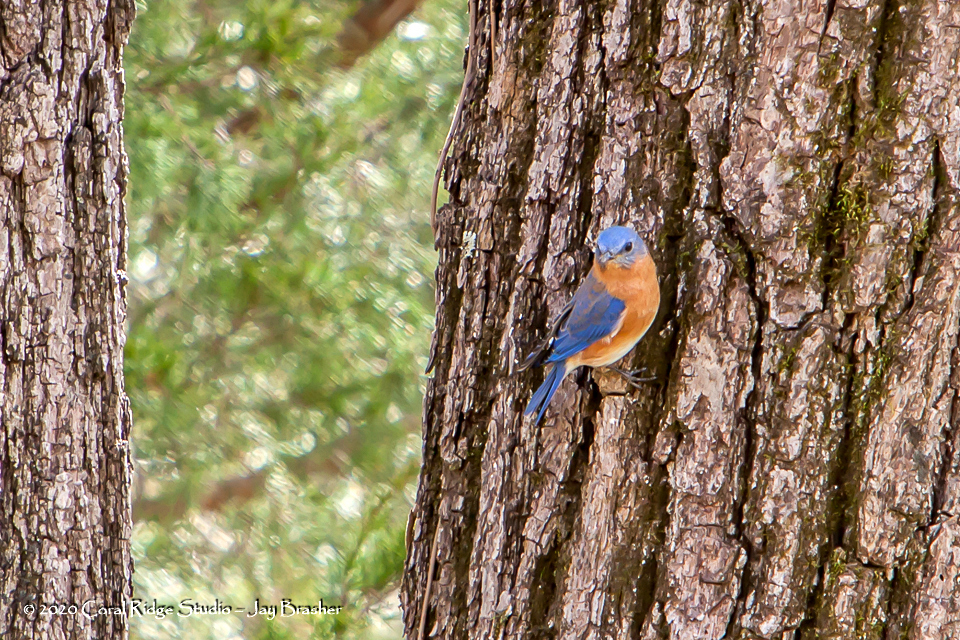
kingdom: Animalia
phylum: Chordata
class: Aves
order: Passeriformes
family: Turdidae
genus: Sialia
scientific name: Sialia sialis
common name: Eastern bluebird
